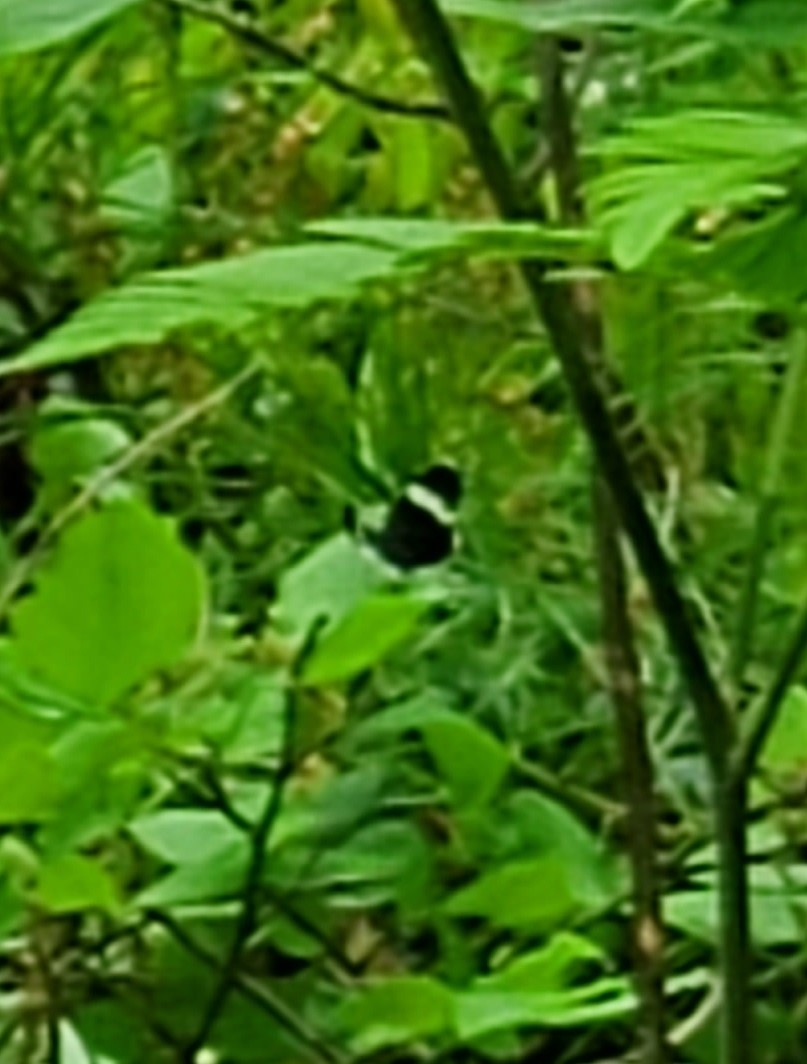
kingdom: Animalia
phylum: Arthropoda
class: Insecta
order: Lepidoptera
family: Geometridae
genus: Trichodezia
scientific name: Trichodezia albovittata
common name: White striped black
